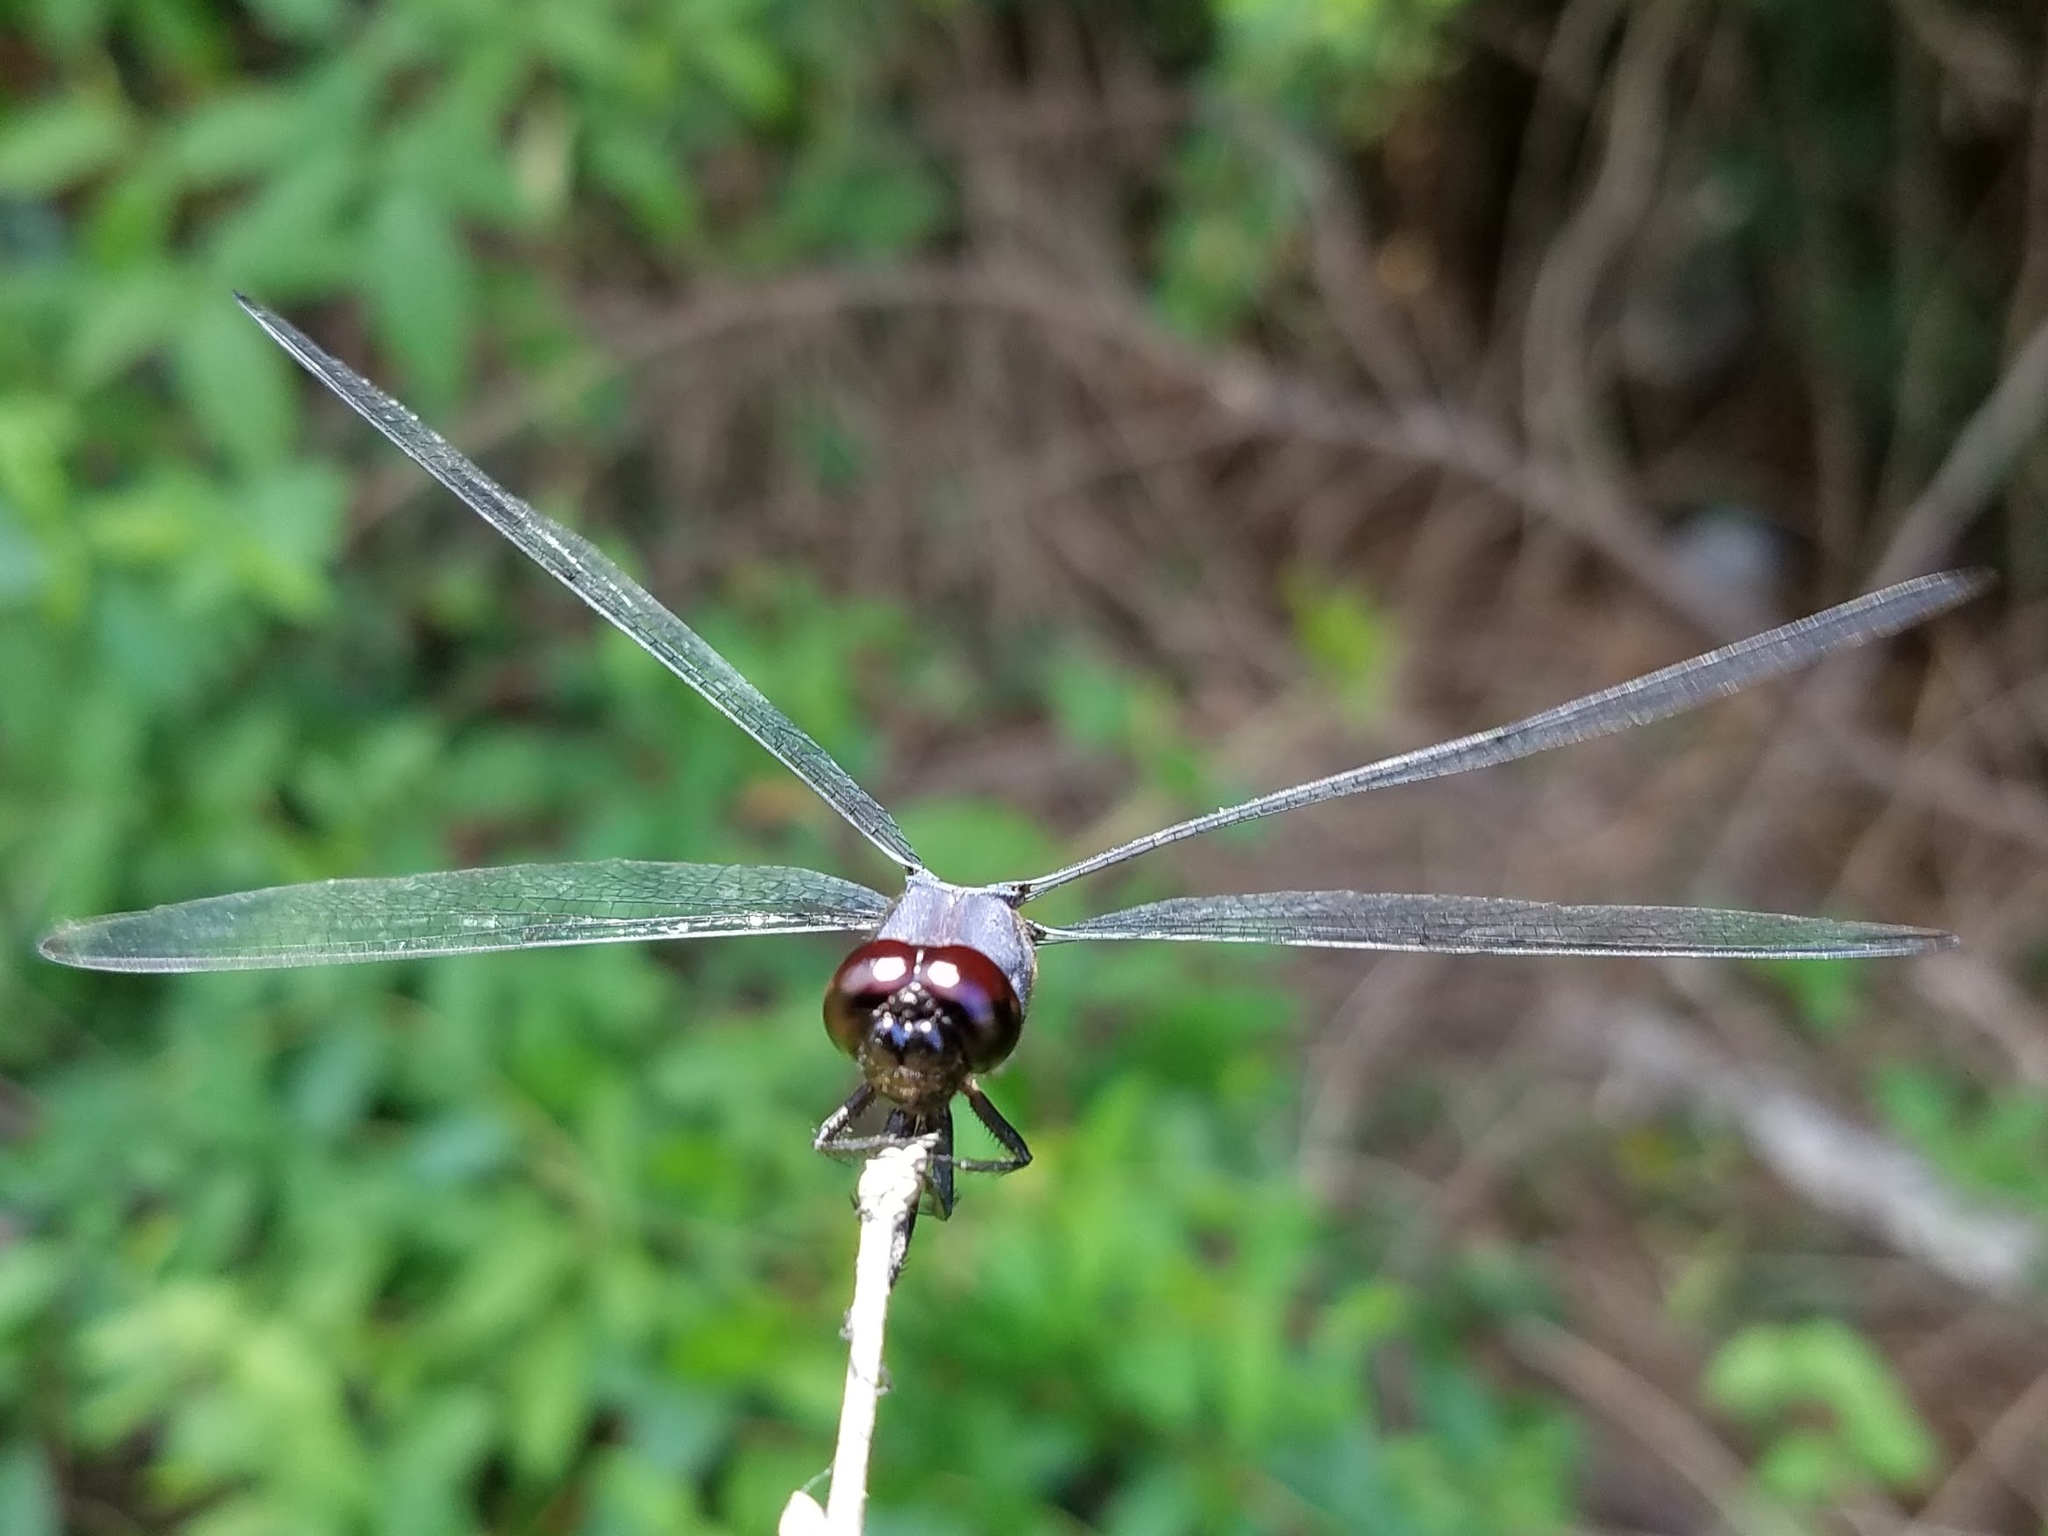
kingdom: Animalia
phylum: Arthropoda
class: Insecta
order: Odonata
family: Libellulidae
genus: Libellula
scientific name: Libellula incesta
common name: Slaty skimmer
